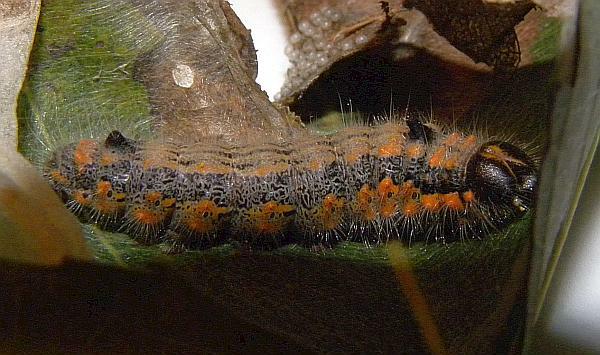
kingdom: Animalia
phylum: Arthropoda
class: Insecta
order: Lepidoptera
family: Notodontidae
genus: Clostera
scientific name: Clostera albosigma
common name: Sigmoid prominent
